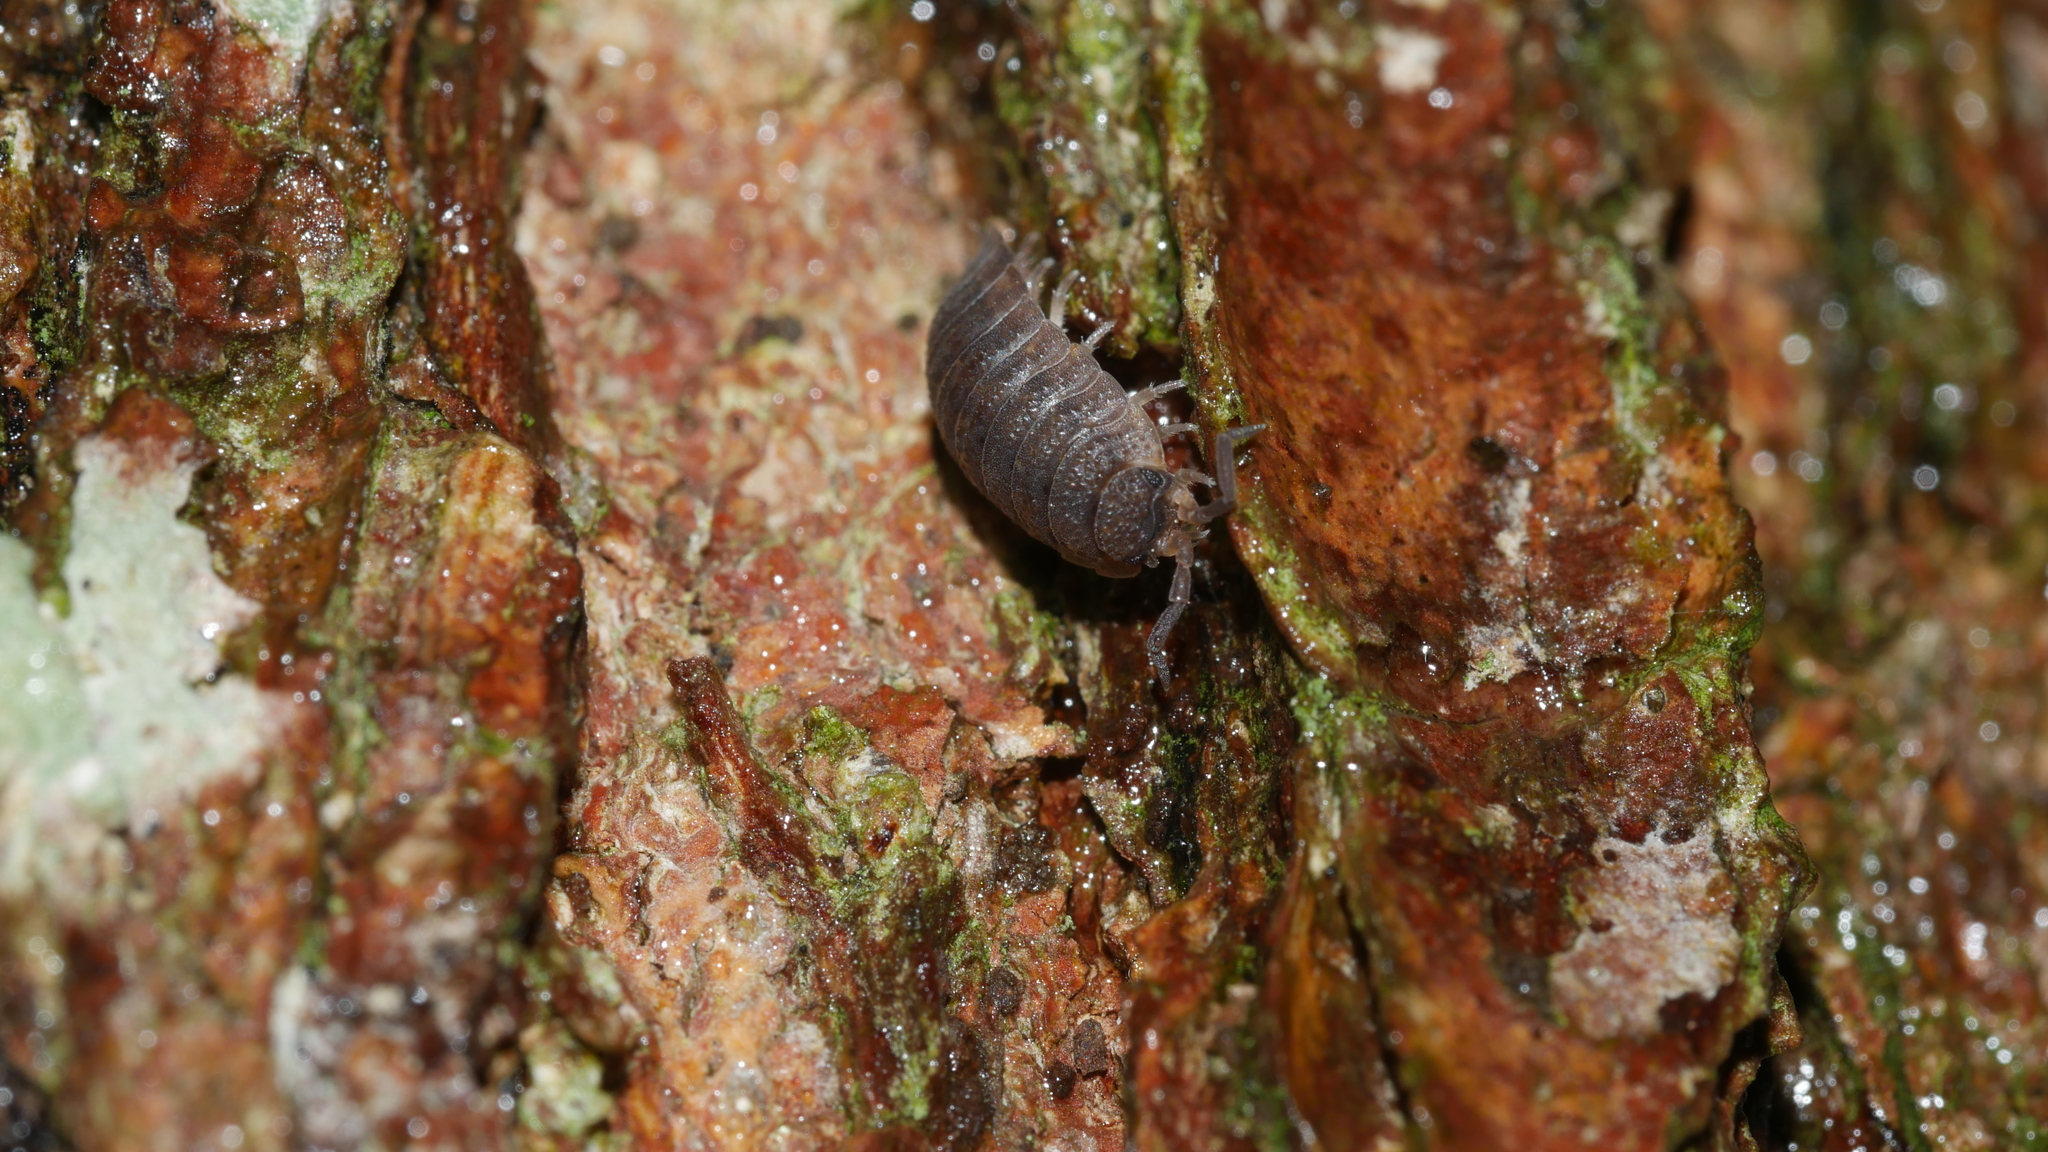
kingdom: Animalia
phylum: Arthropoda
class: Malacostraca
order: Isopoda
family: Porcellionidae
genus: Porcellio
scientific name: Porcellio scaber
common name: Common rough woodlouse
